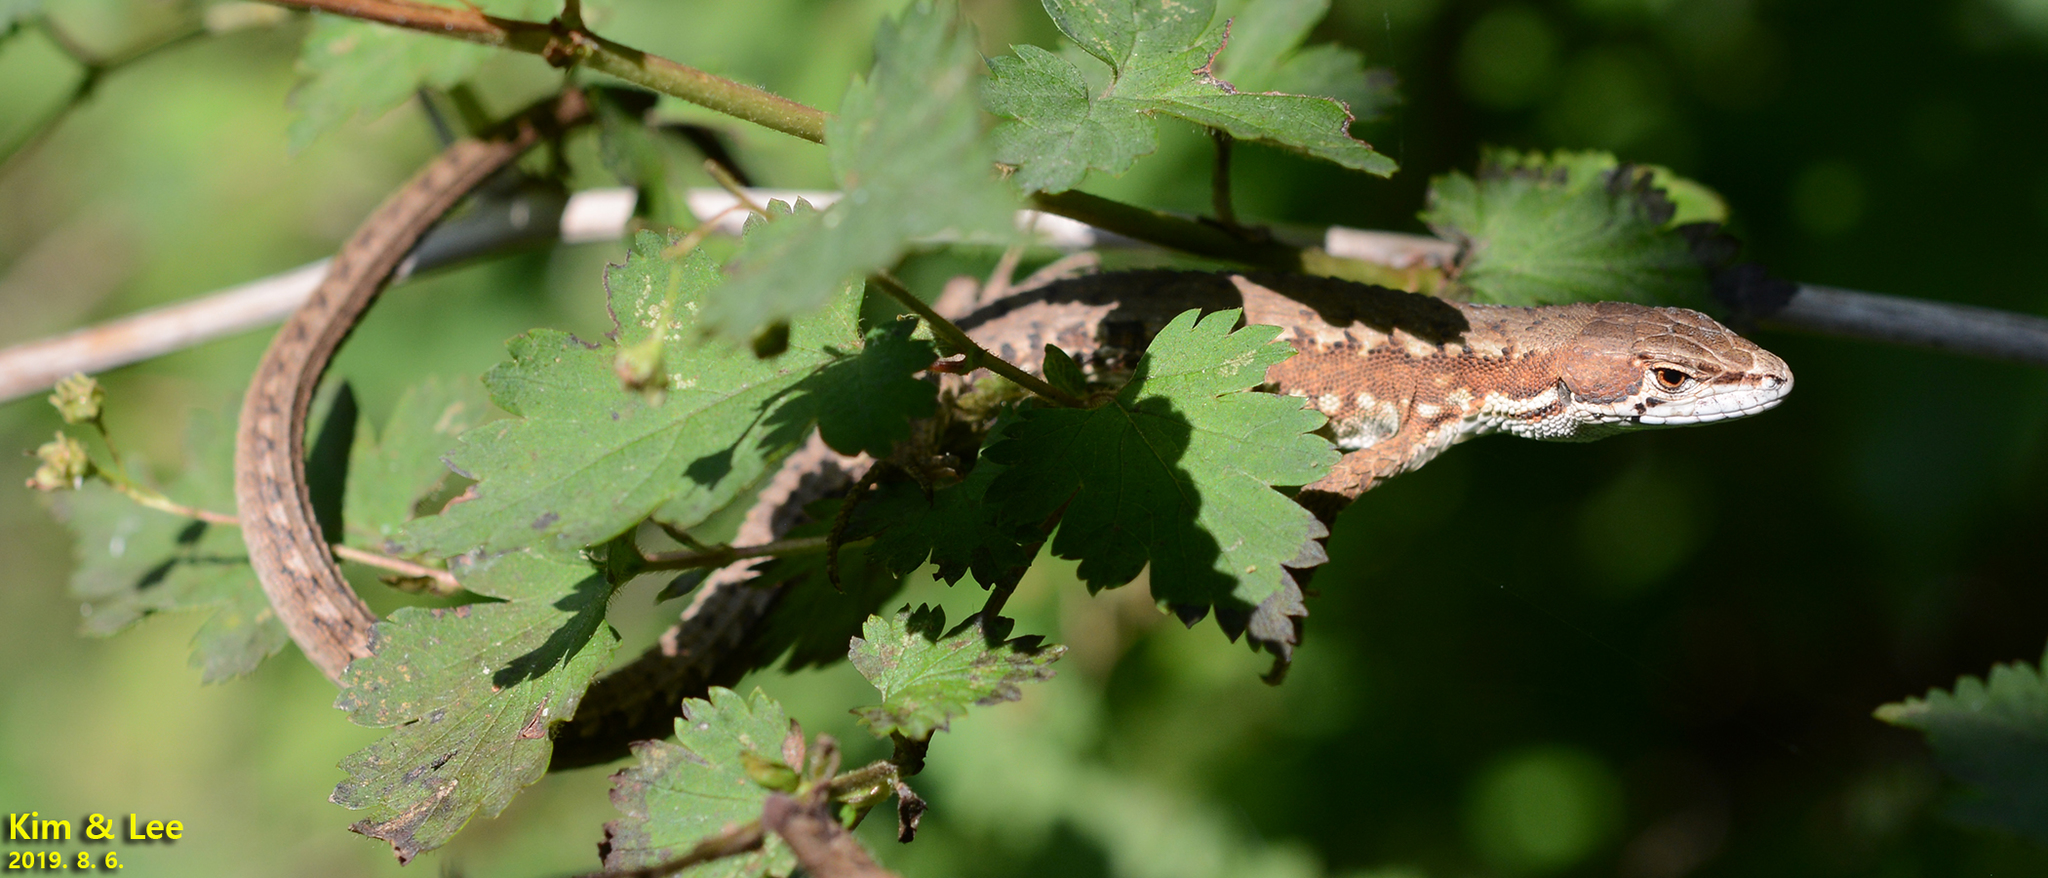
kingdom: Animalia
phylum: Chordata
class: Squamata
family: Lacertidae
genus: Takydromus
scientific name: Takydromus amurensis
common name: Amur grass lizard
